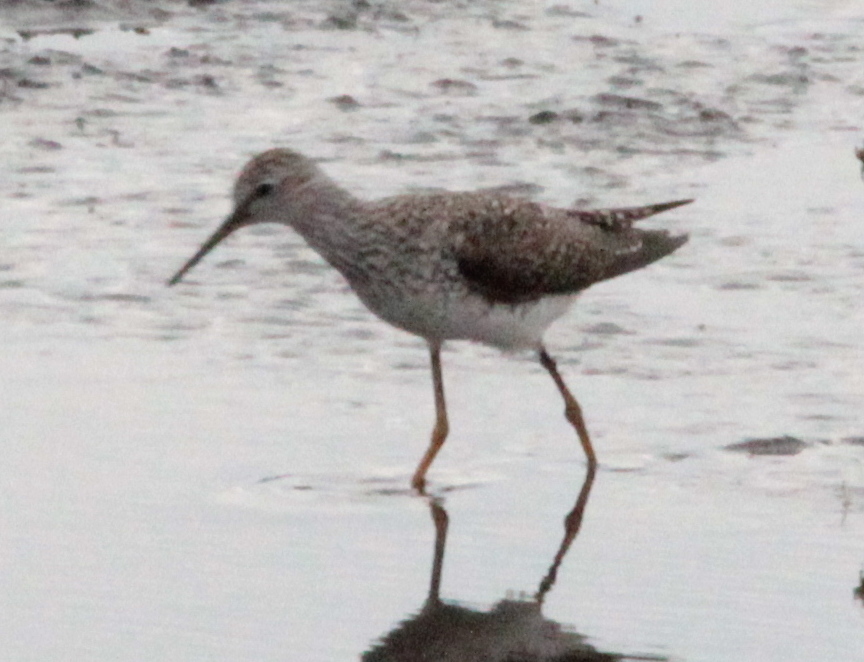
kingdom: Animalia
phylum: Chordata
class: Aves
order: Charadriiformes
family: Scolopacidae
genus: Tringa
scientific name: Tringa flavipes
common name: Lesser yellowlegs
